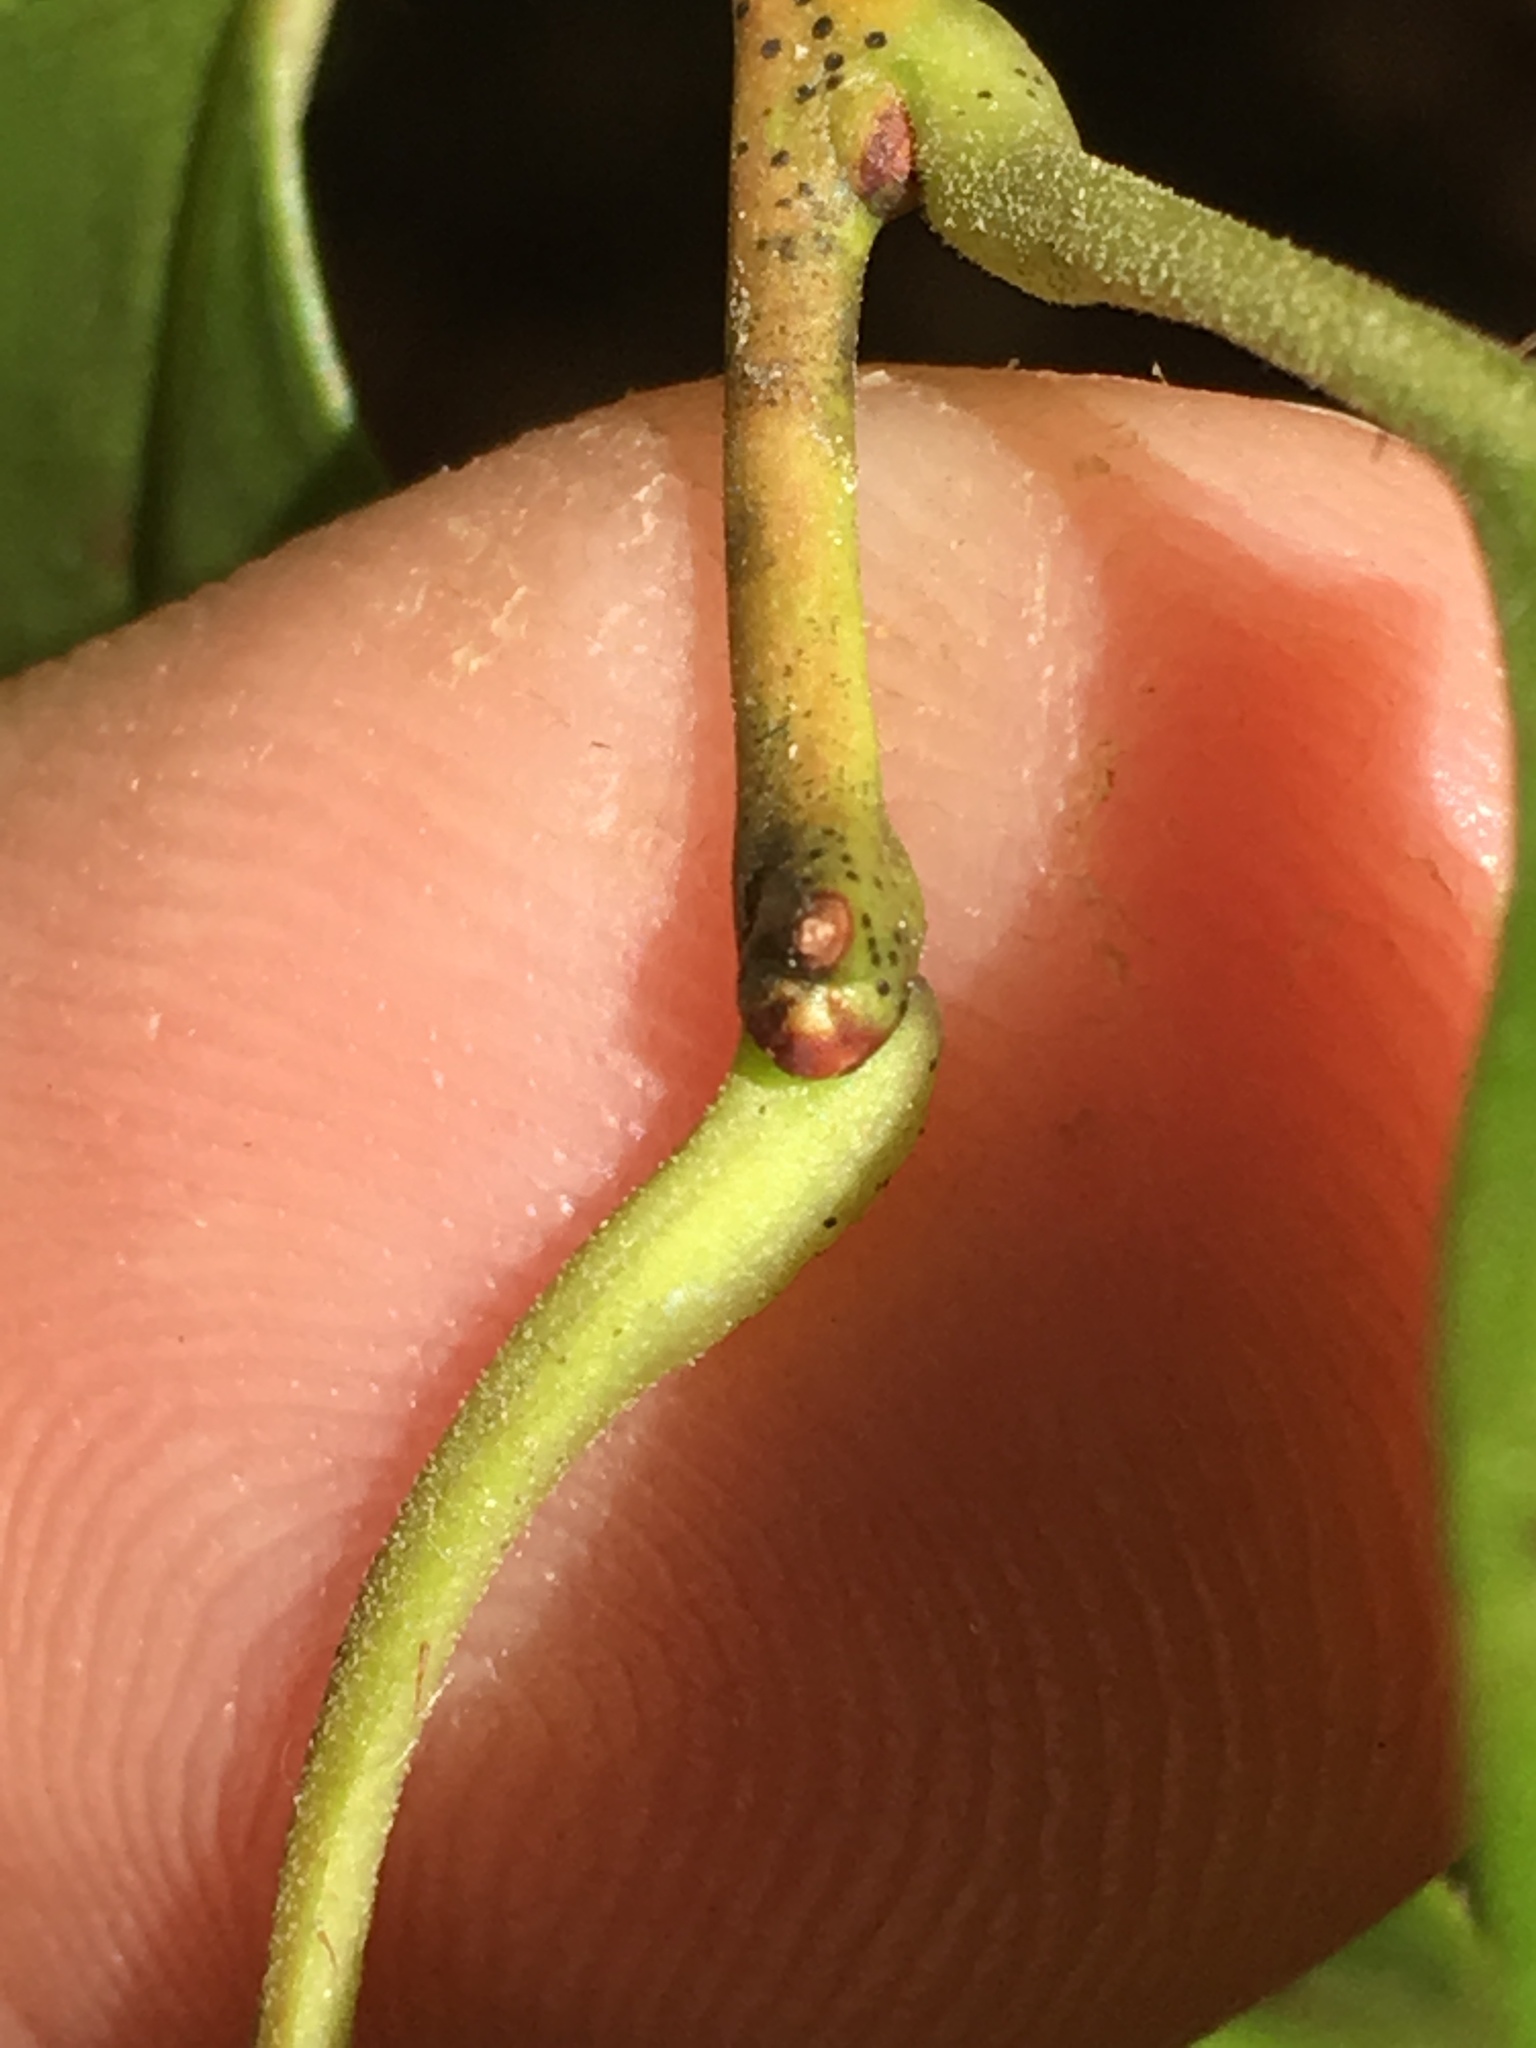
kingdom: Plantae
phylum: Tracheophyta
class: Magnoliopsida
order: Ericales
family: Ericaceae
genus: Oxydendrum
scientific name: Oxydendrum arboreum
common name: Sourwood
